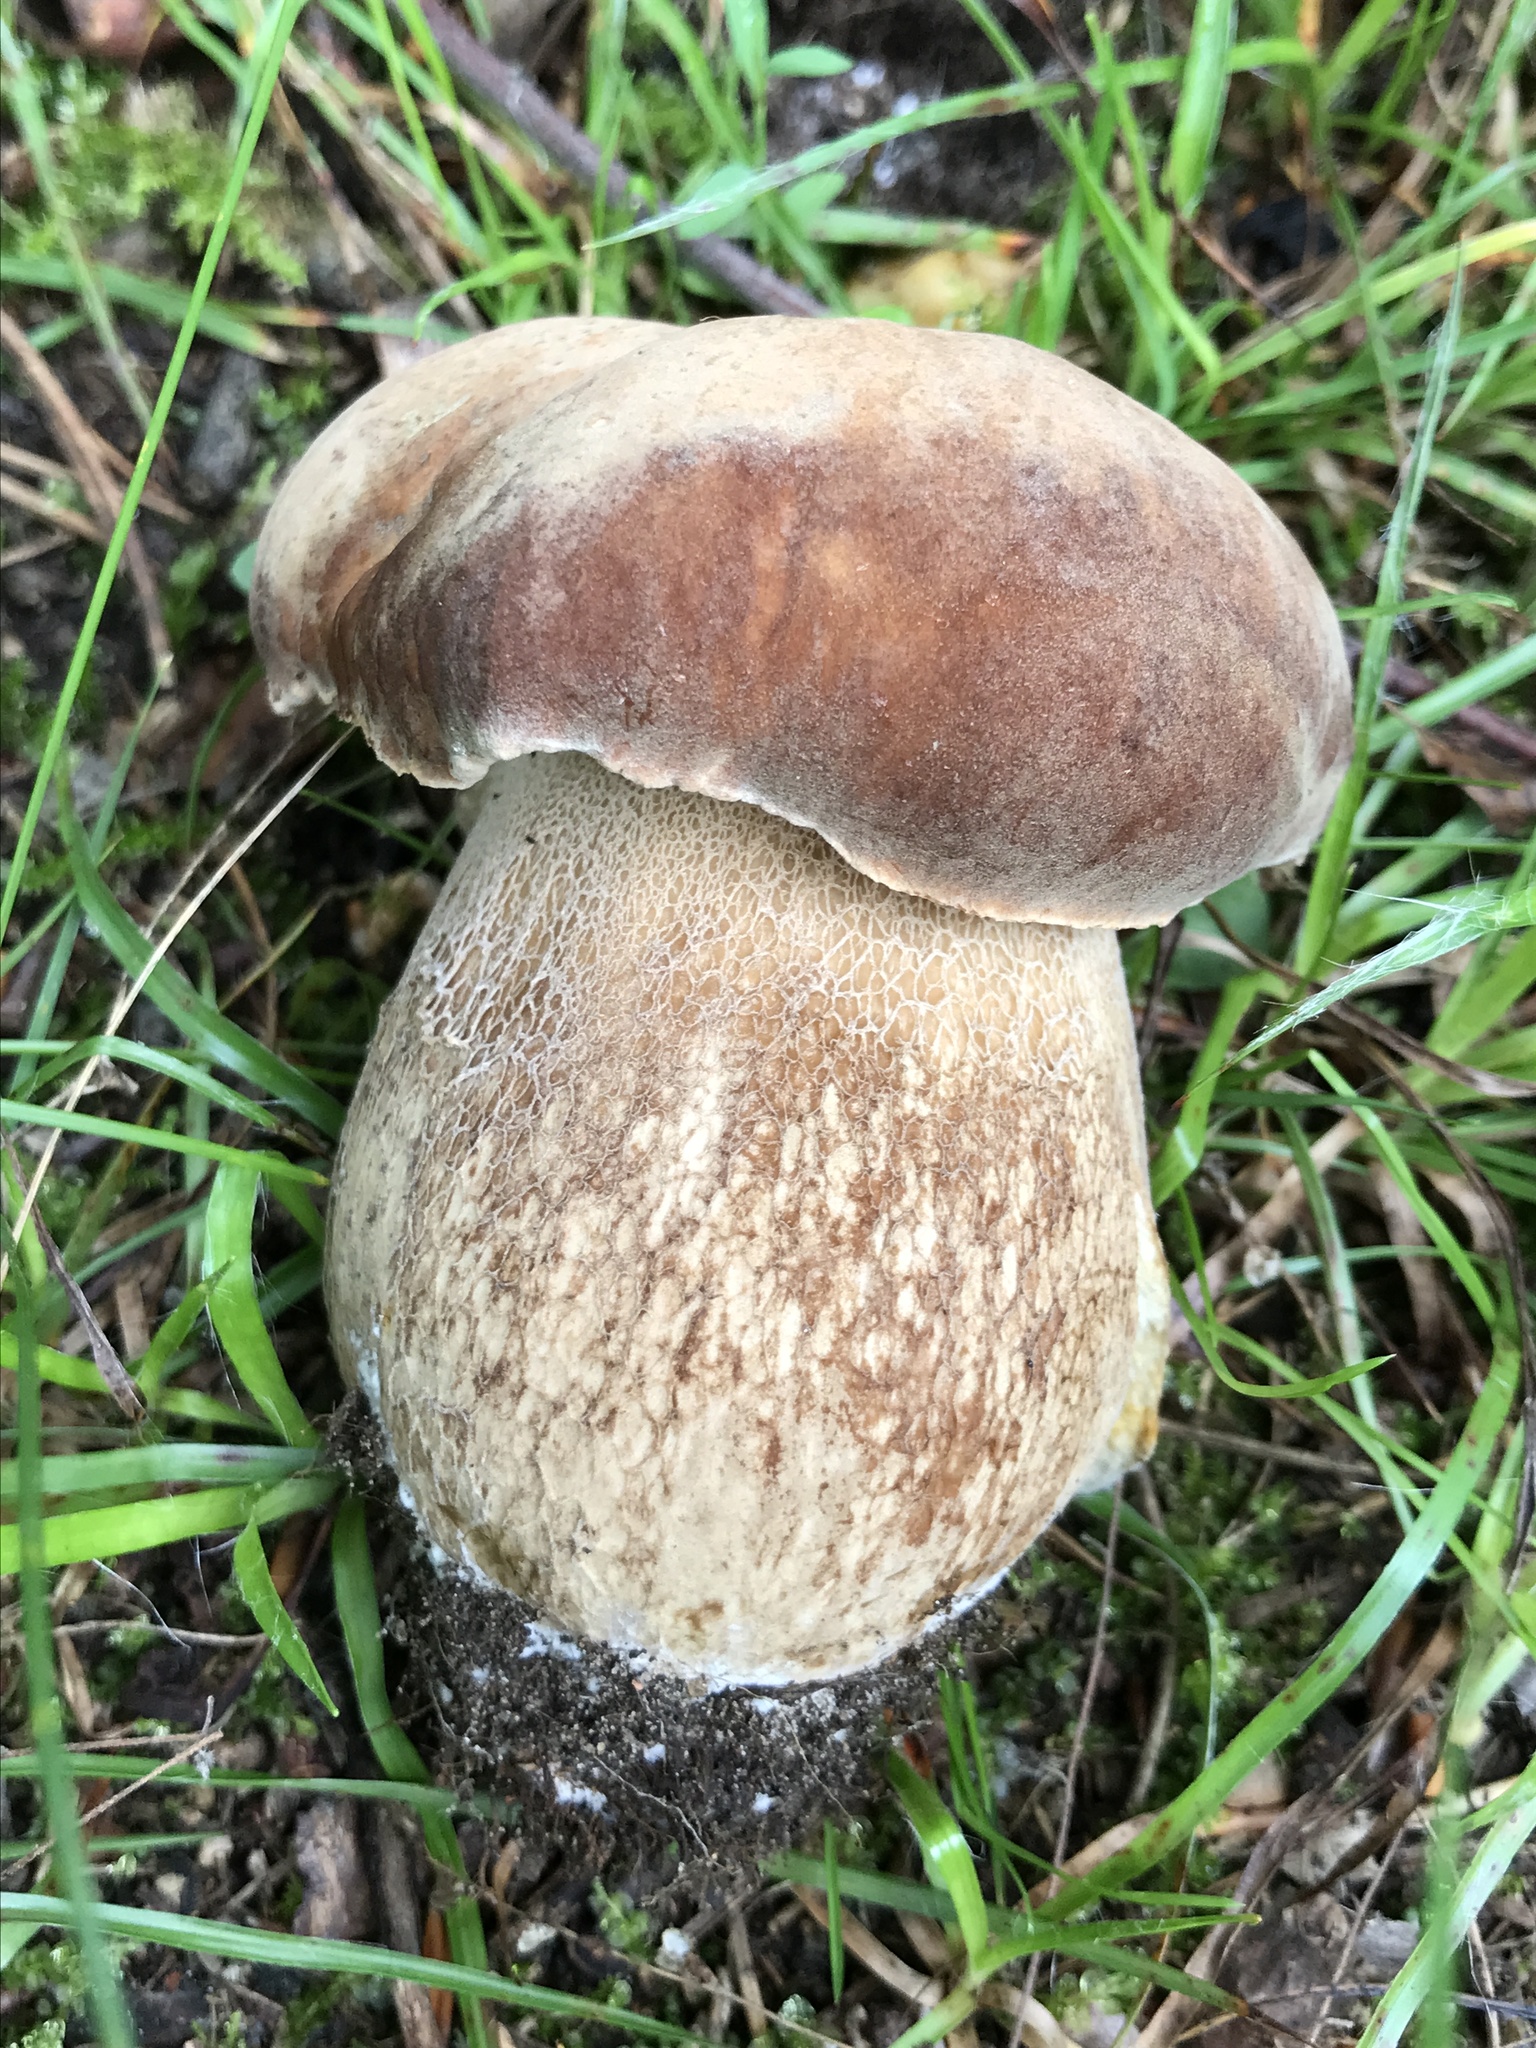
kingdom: Fungi
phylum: Basidiomycota
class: Agaricomycetes
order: Boletales
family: Boletaceae
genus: Boletus
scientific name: Boletus reticulatus
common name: Summer bolete
